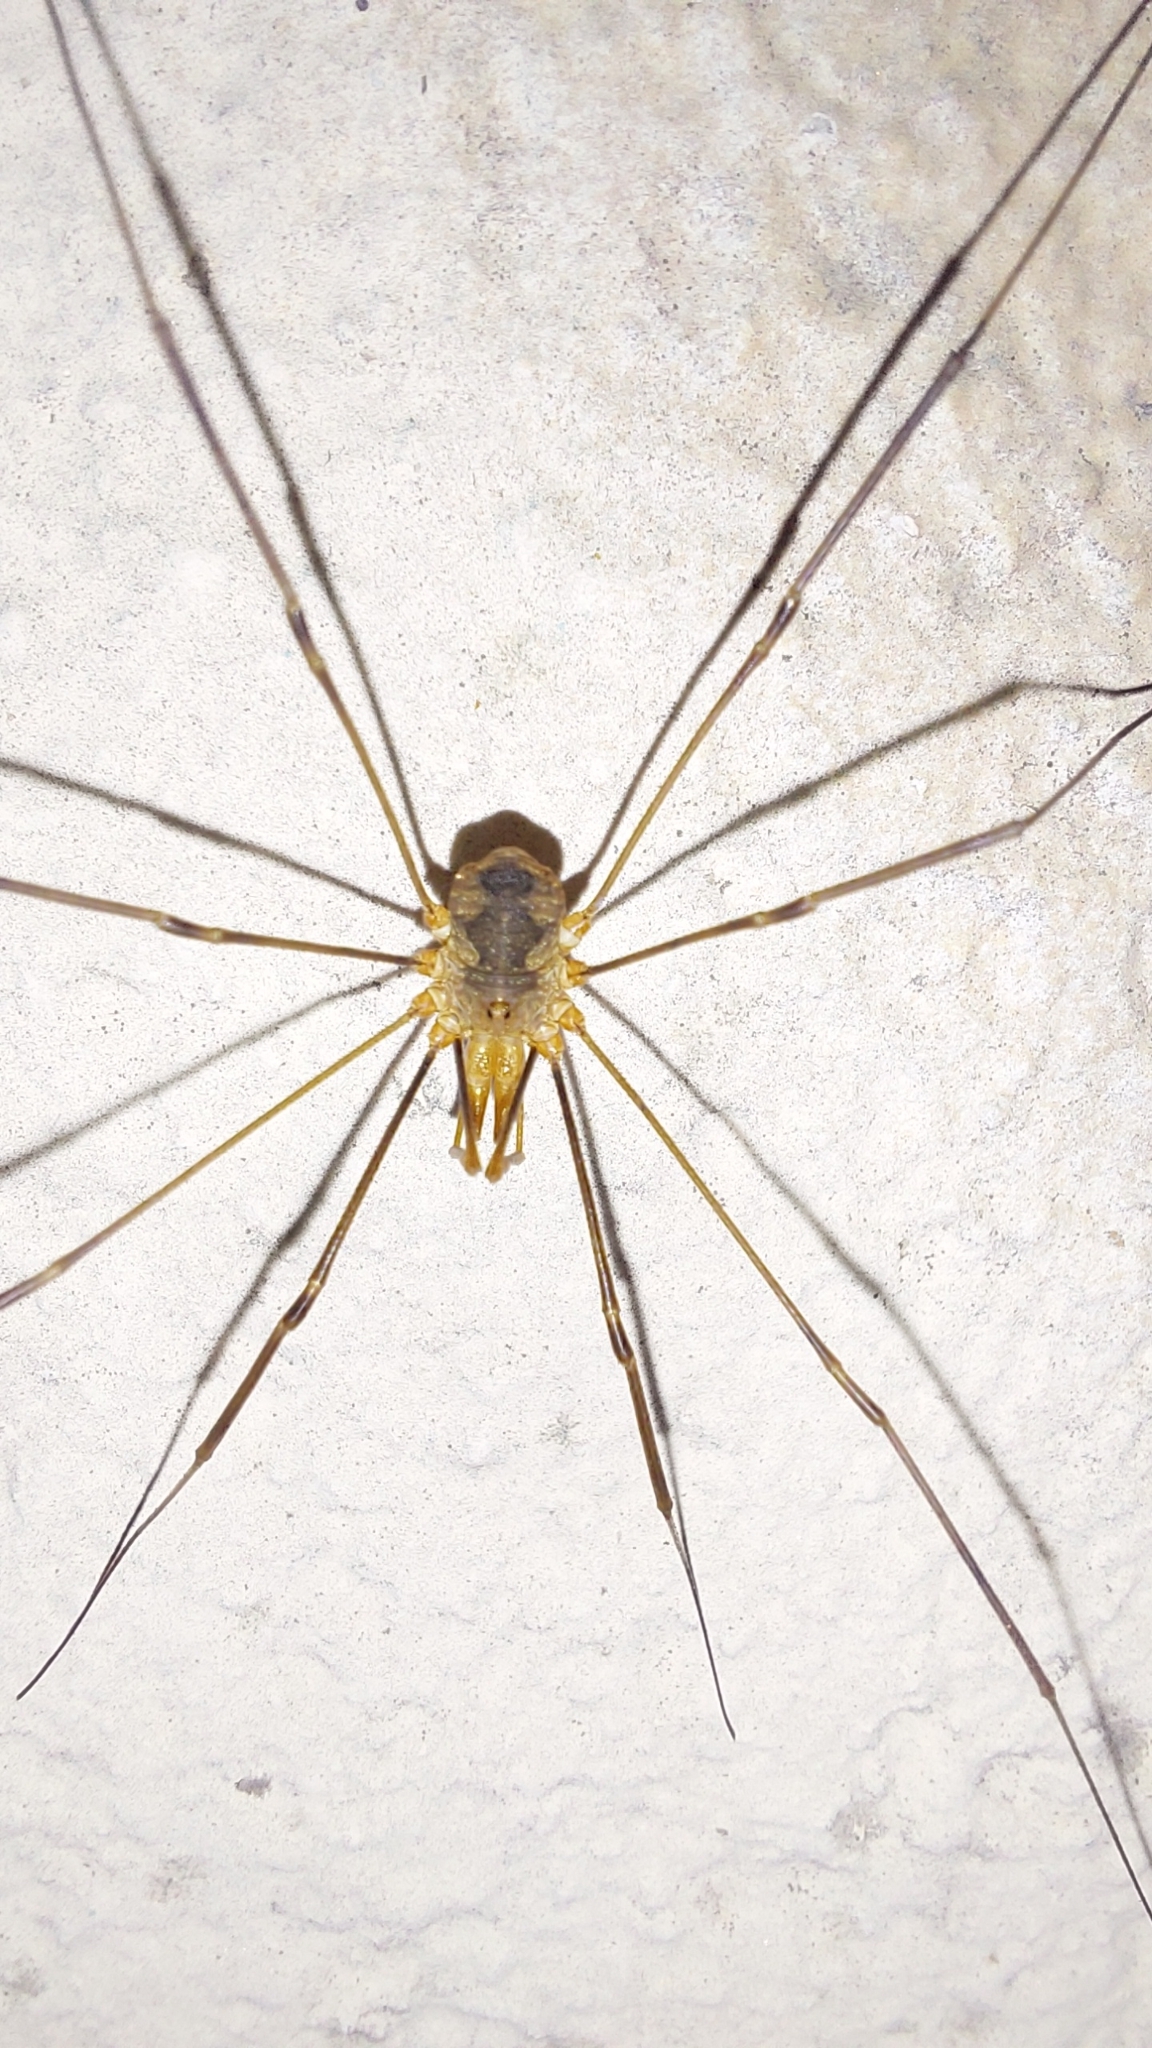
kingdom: Animalia
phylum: Arthropoda
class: Arachnida
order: Opiliones
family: Phalangiidae
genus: Phalangium
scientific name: Phalangium opilio
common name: Daddy longleg
